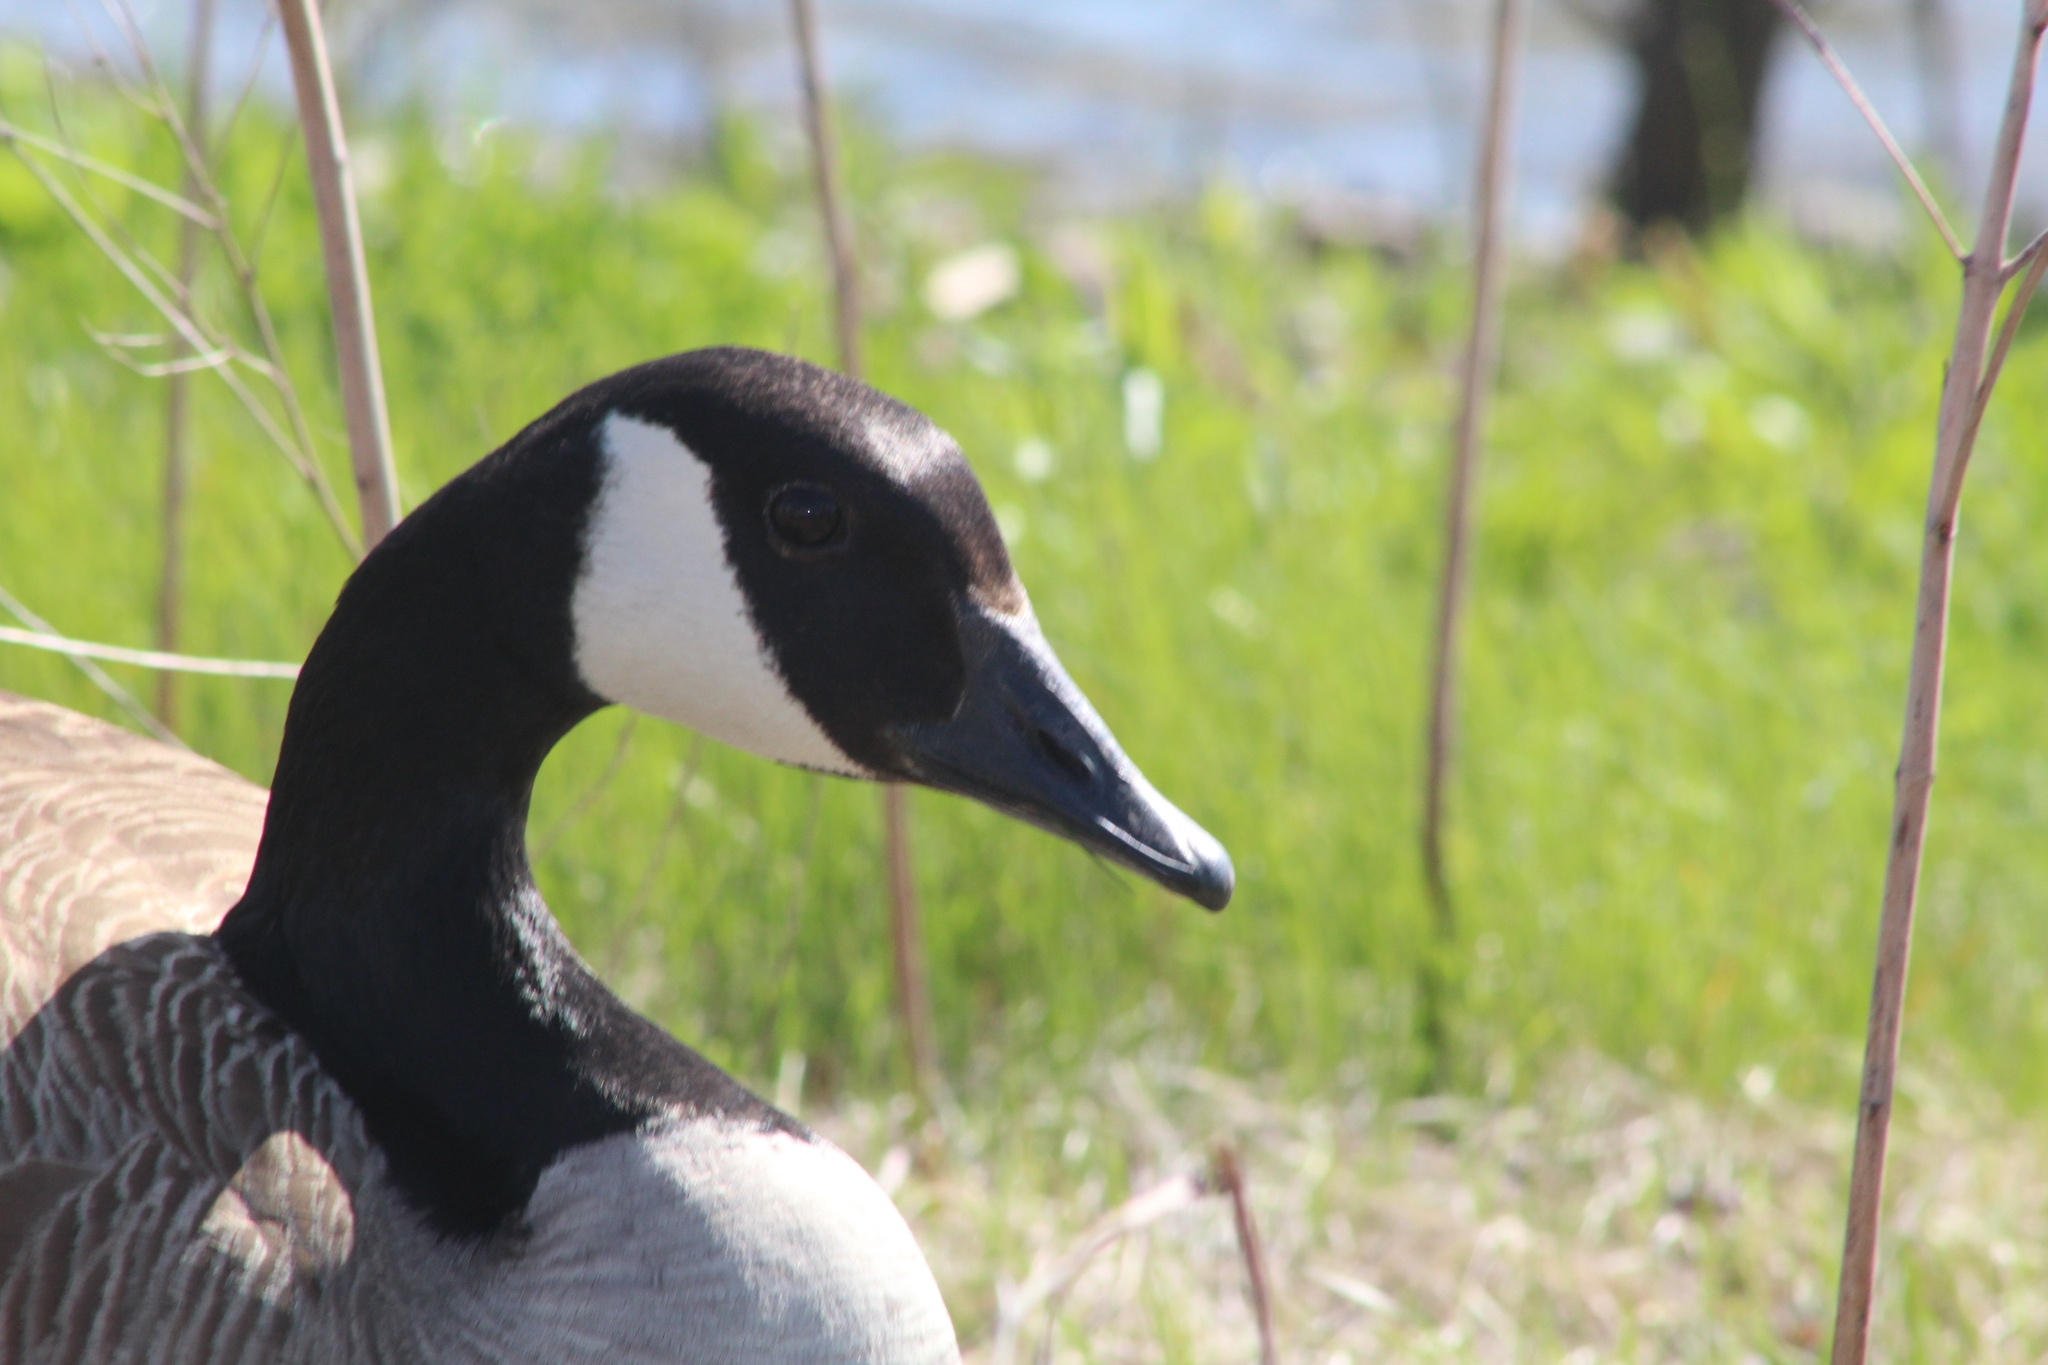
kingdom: Animalia
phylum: Chordata
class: Aves
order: Anseriformes
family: Anatidae
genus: Branta
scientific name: Branta canadensis
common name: Canada goose
